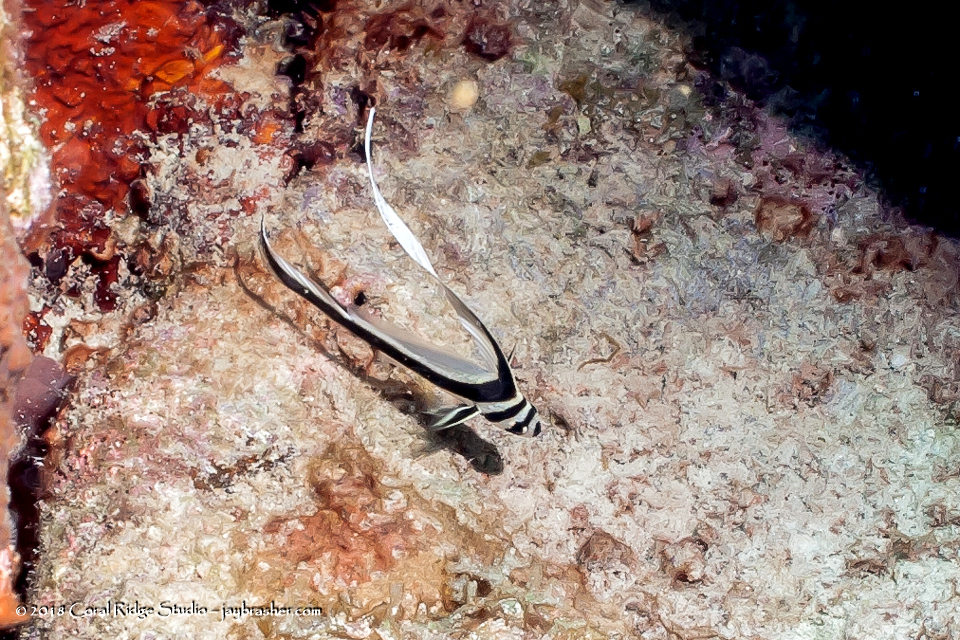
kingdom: Animalia
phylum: Chordata
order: Perciformes
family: Sciaenidae
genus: Equetus
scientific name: Equetus punctatus
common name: Spotted drum
